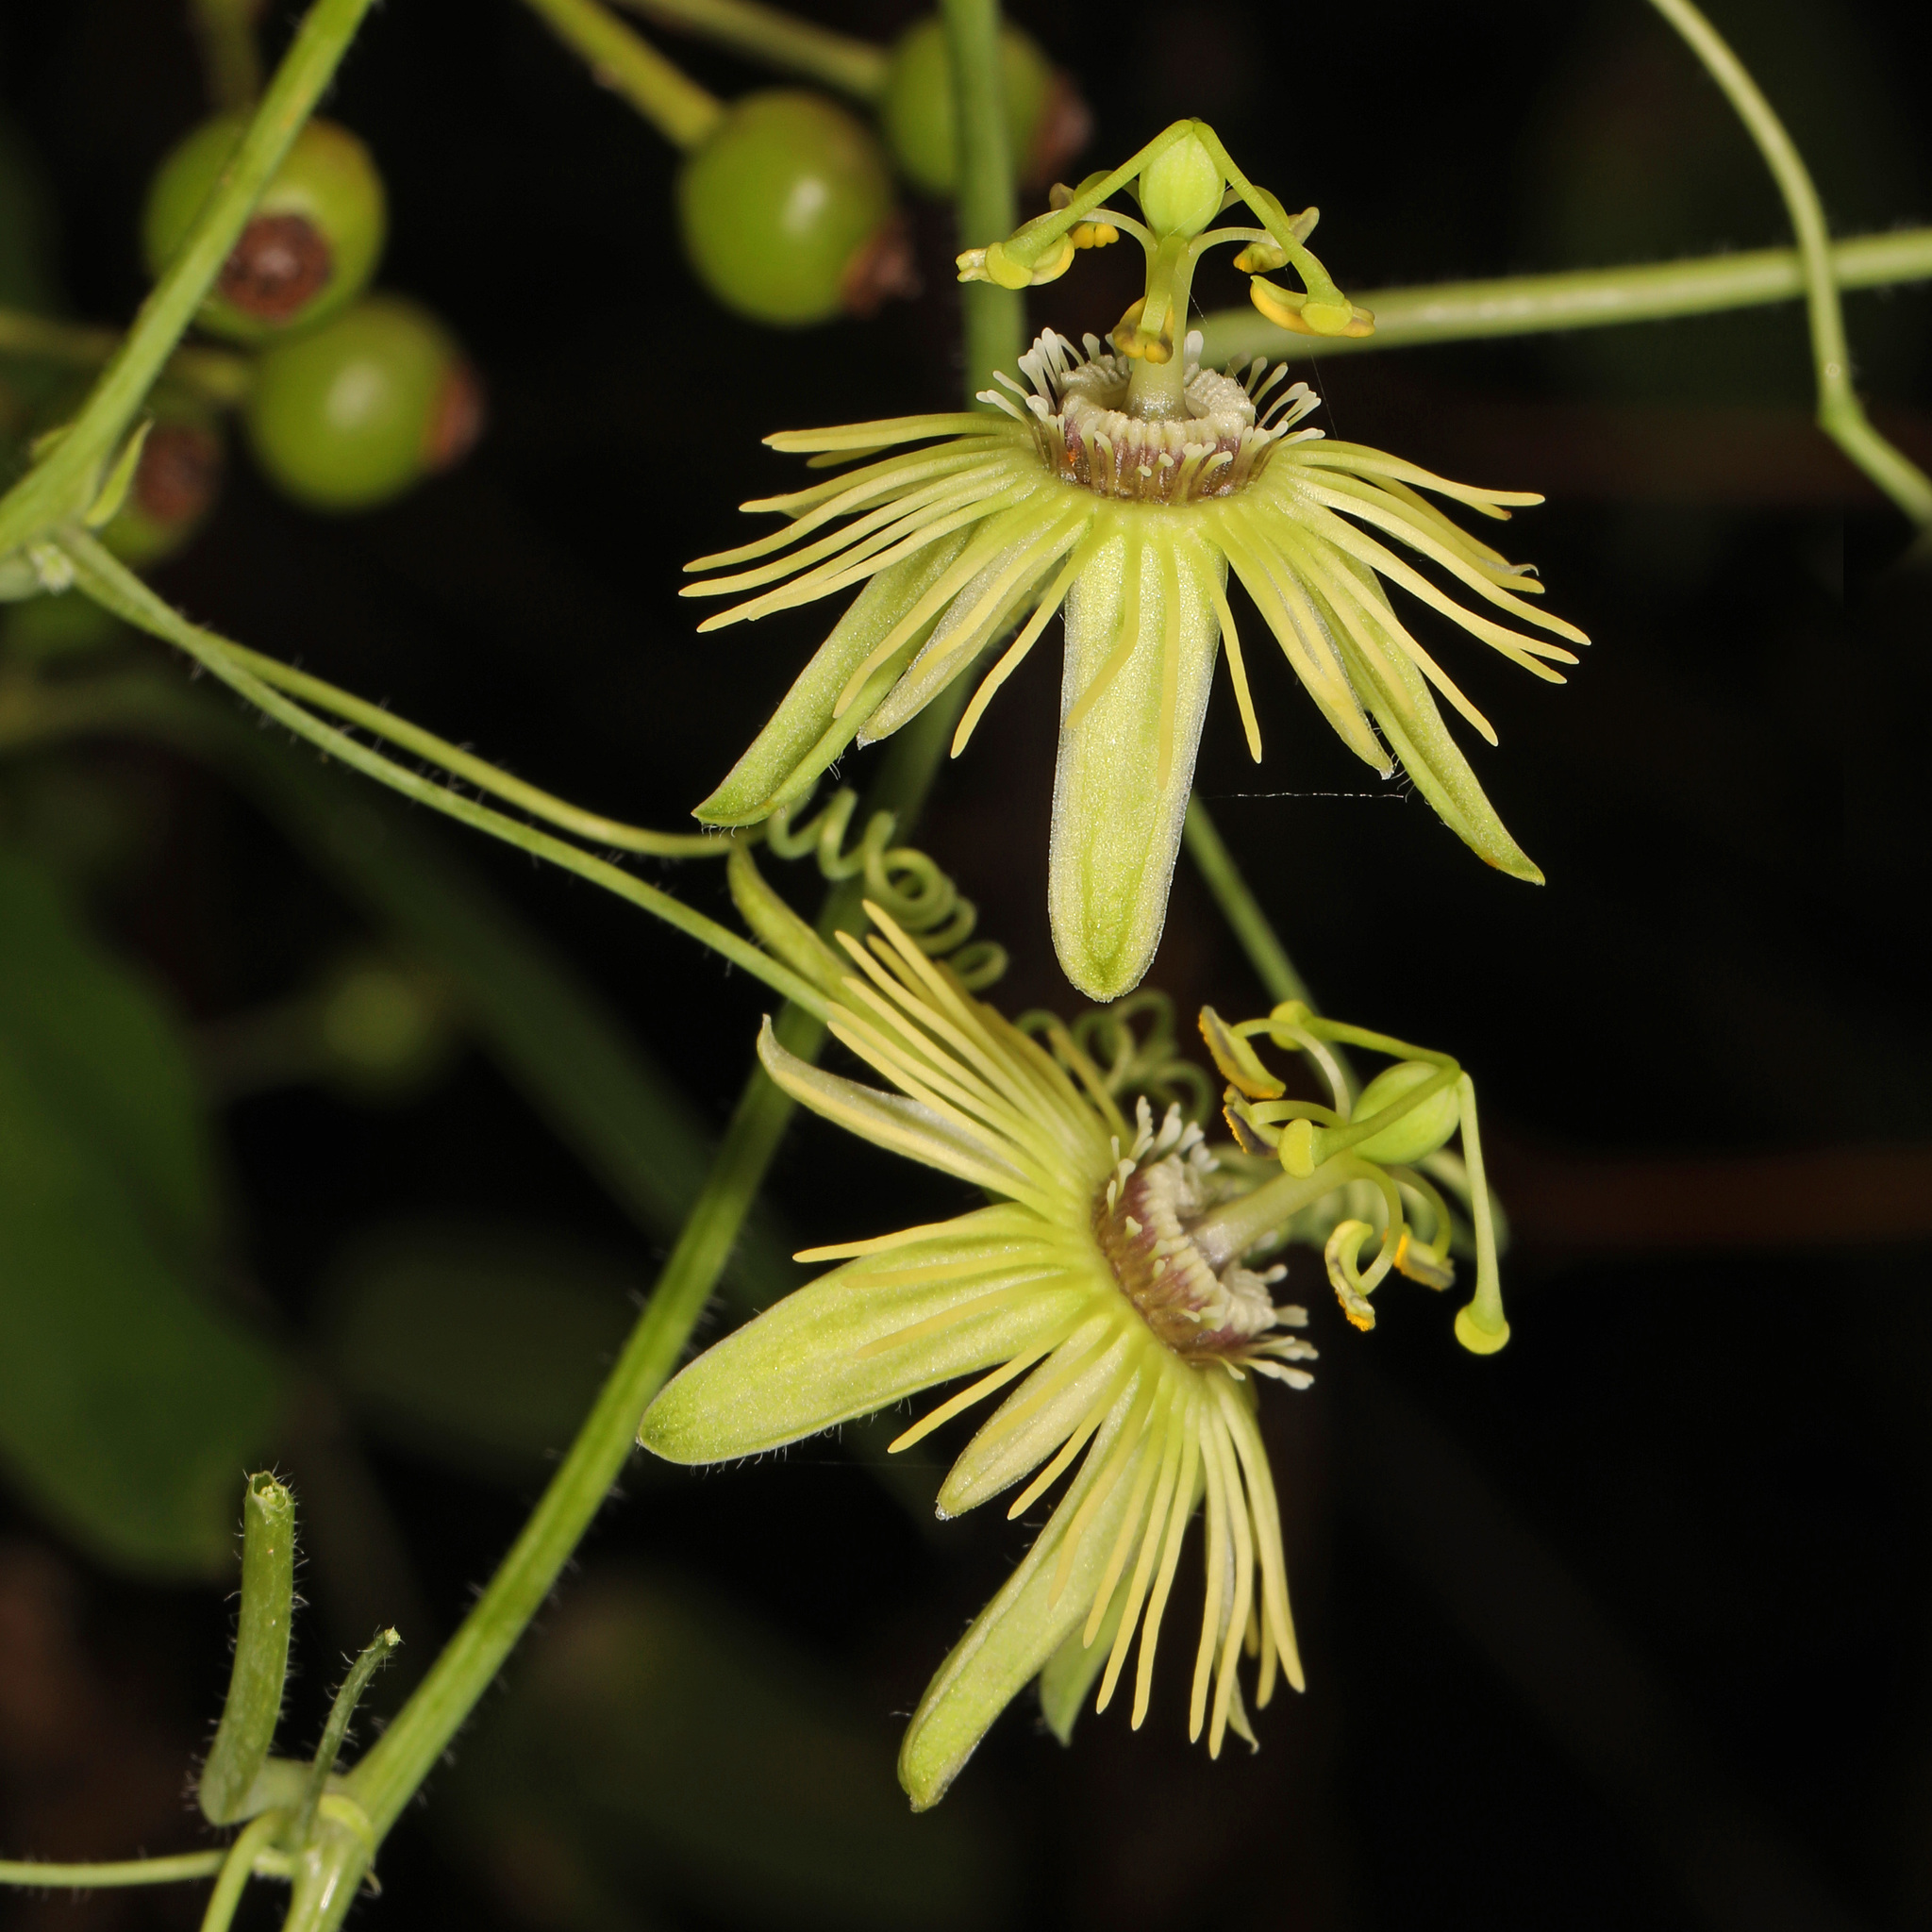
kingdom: Plantae
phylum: Tracheophyta
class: Magnoliopsida
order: Malpighiales
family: Passifloraceae
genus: Passiflora
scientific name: Passiflora lutea
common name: Yellow passionflower
